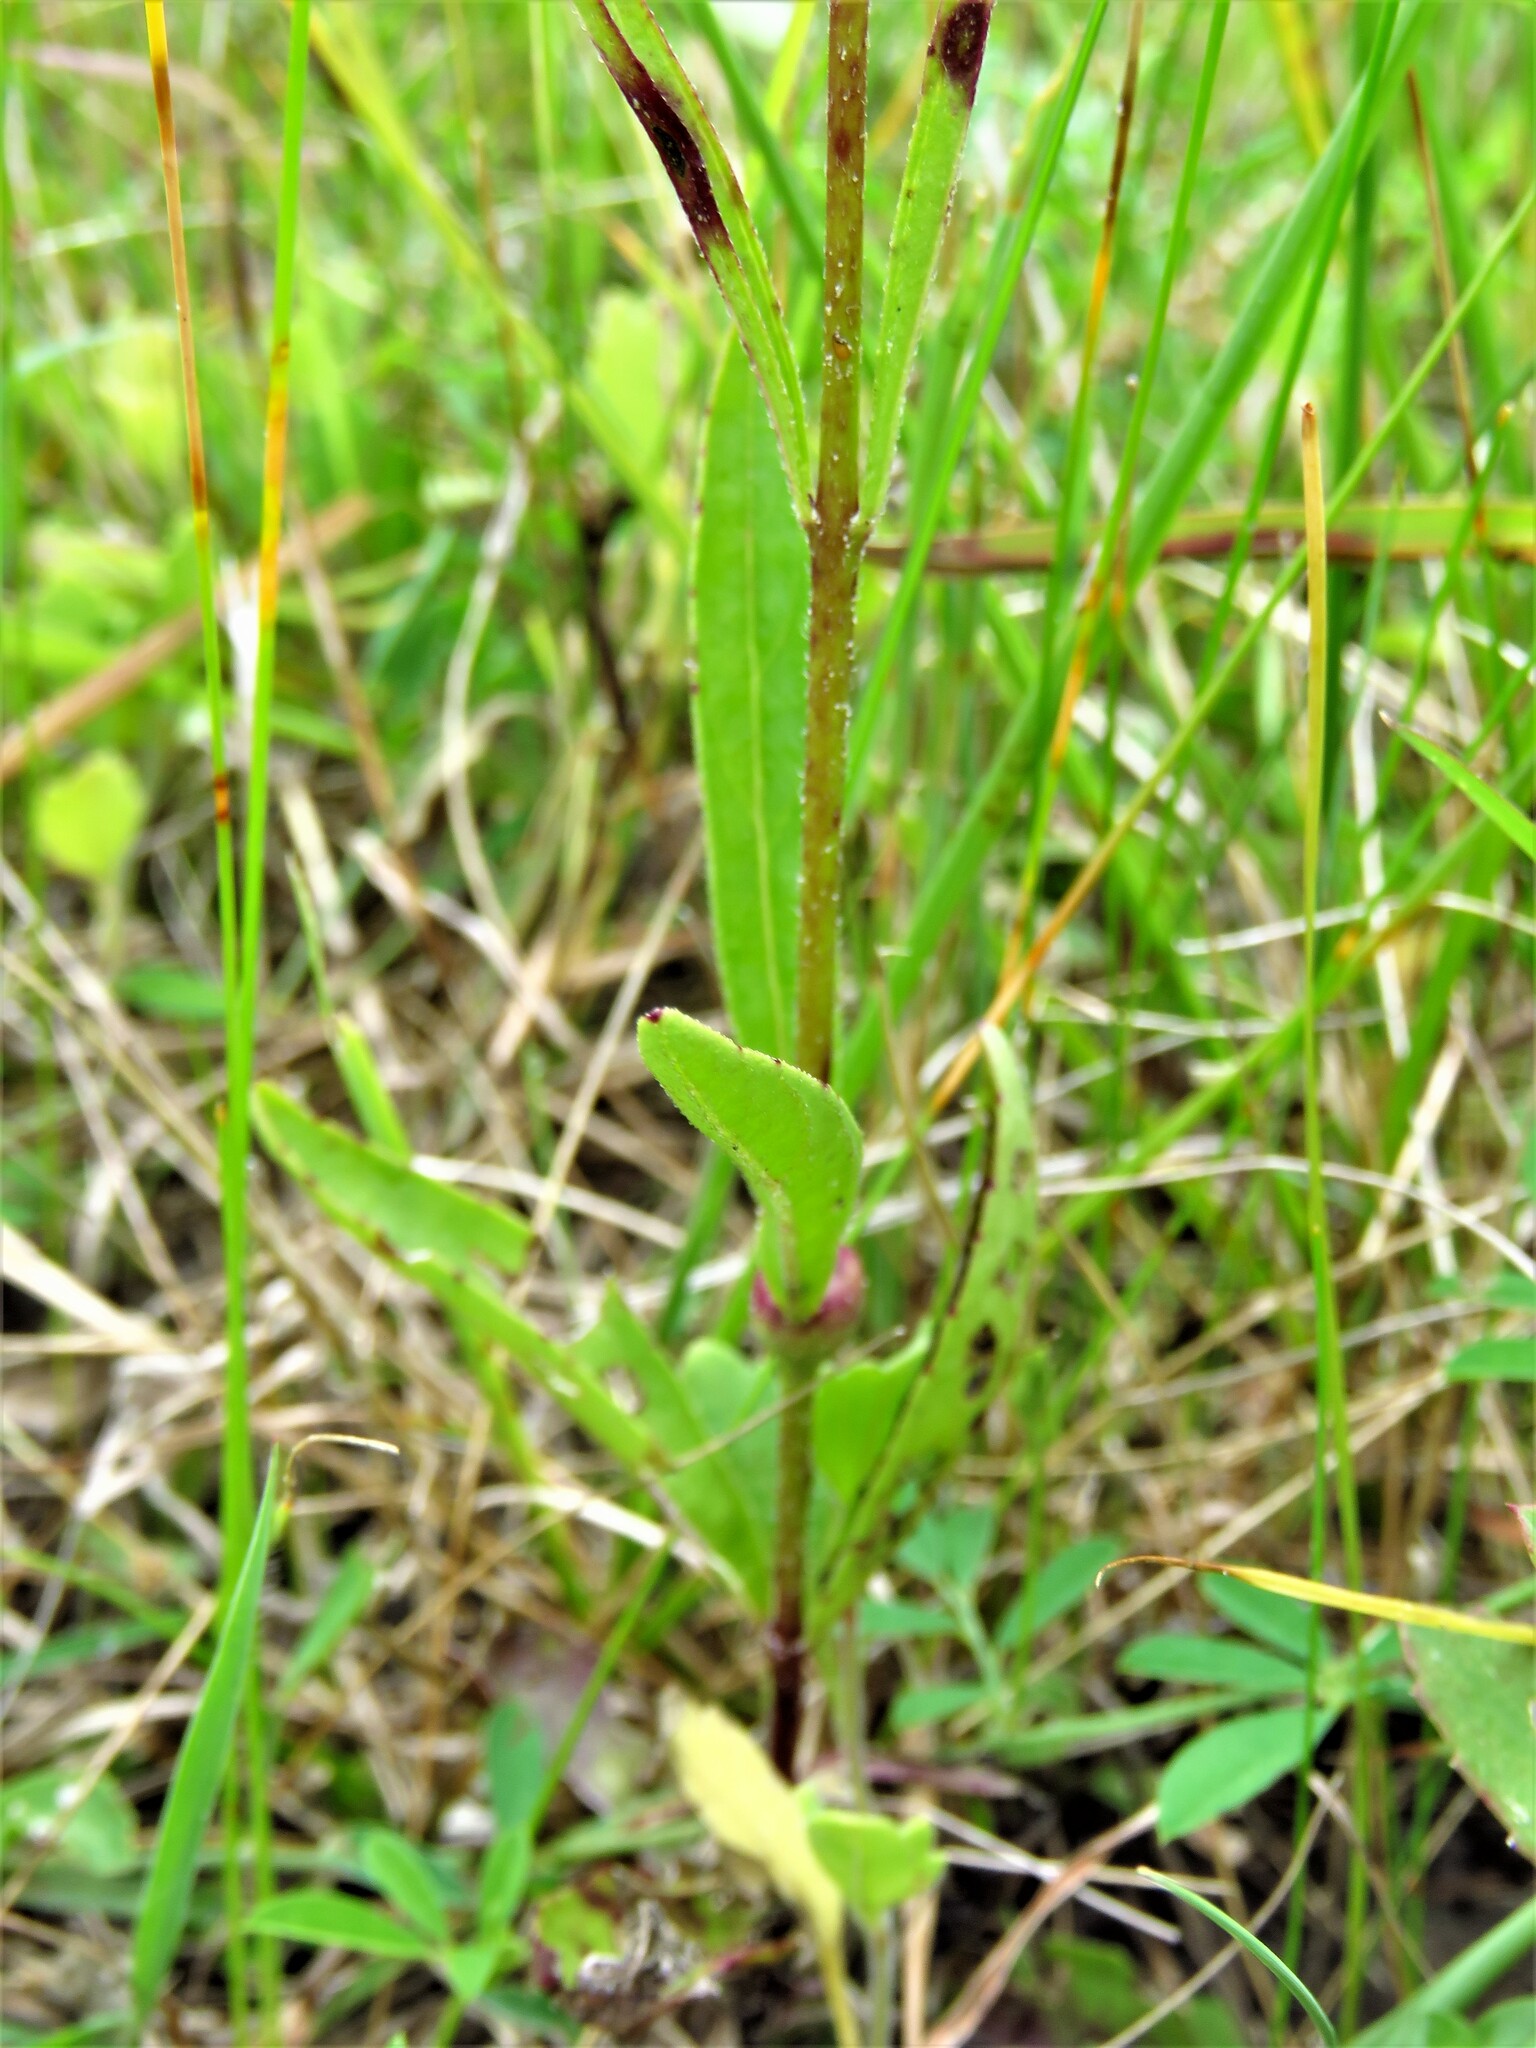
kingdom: Plantae
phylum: Tracheophyta
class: Magnoliopsida
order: Lamiales
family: Orobanchaceae
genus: Buchnera
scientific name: Buchnera floridana
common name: Florida bluehearts
